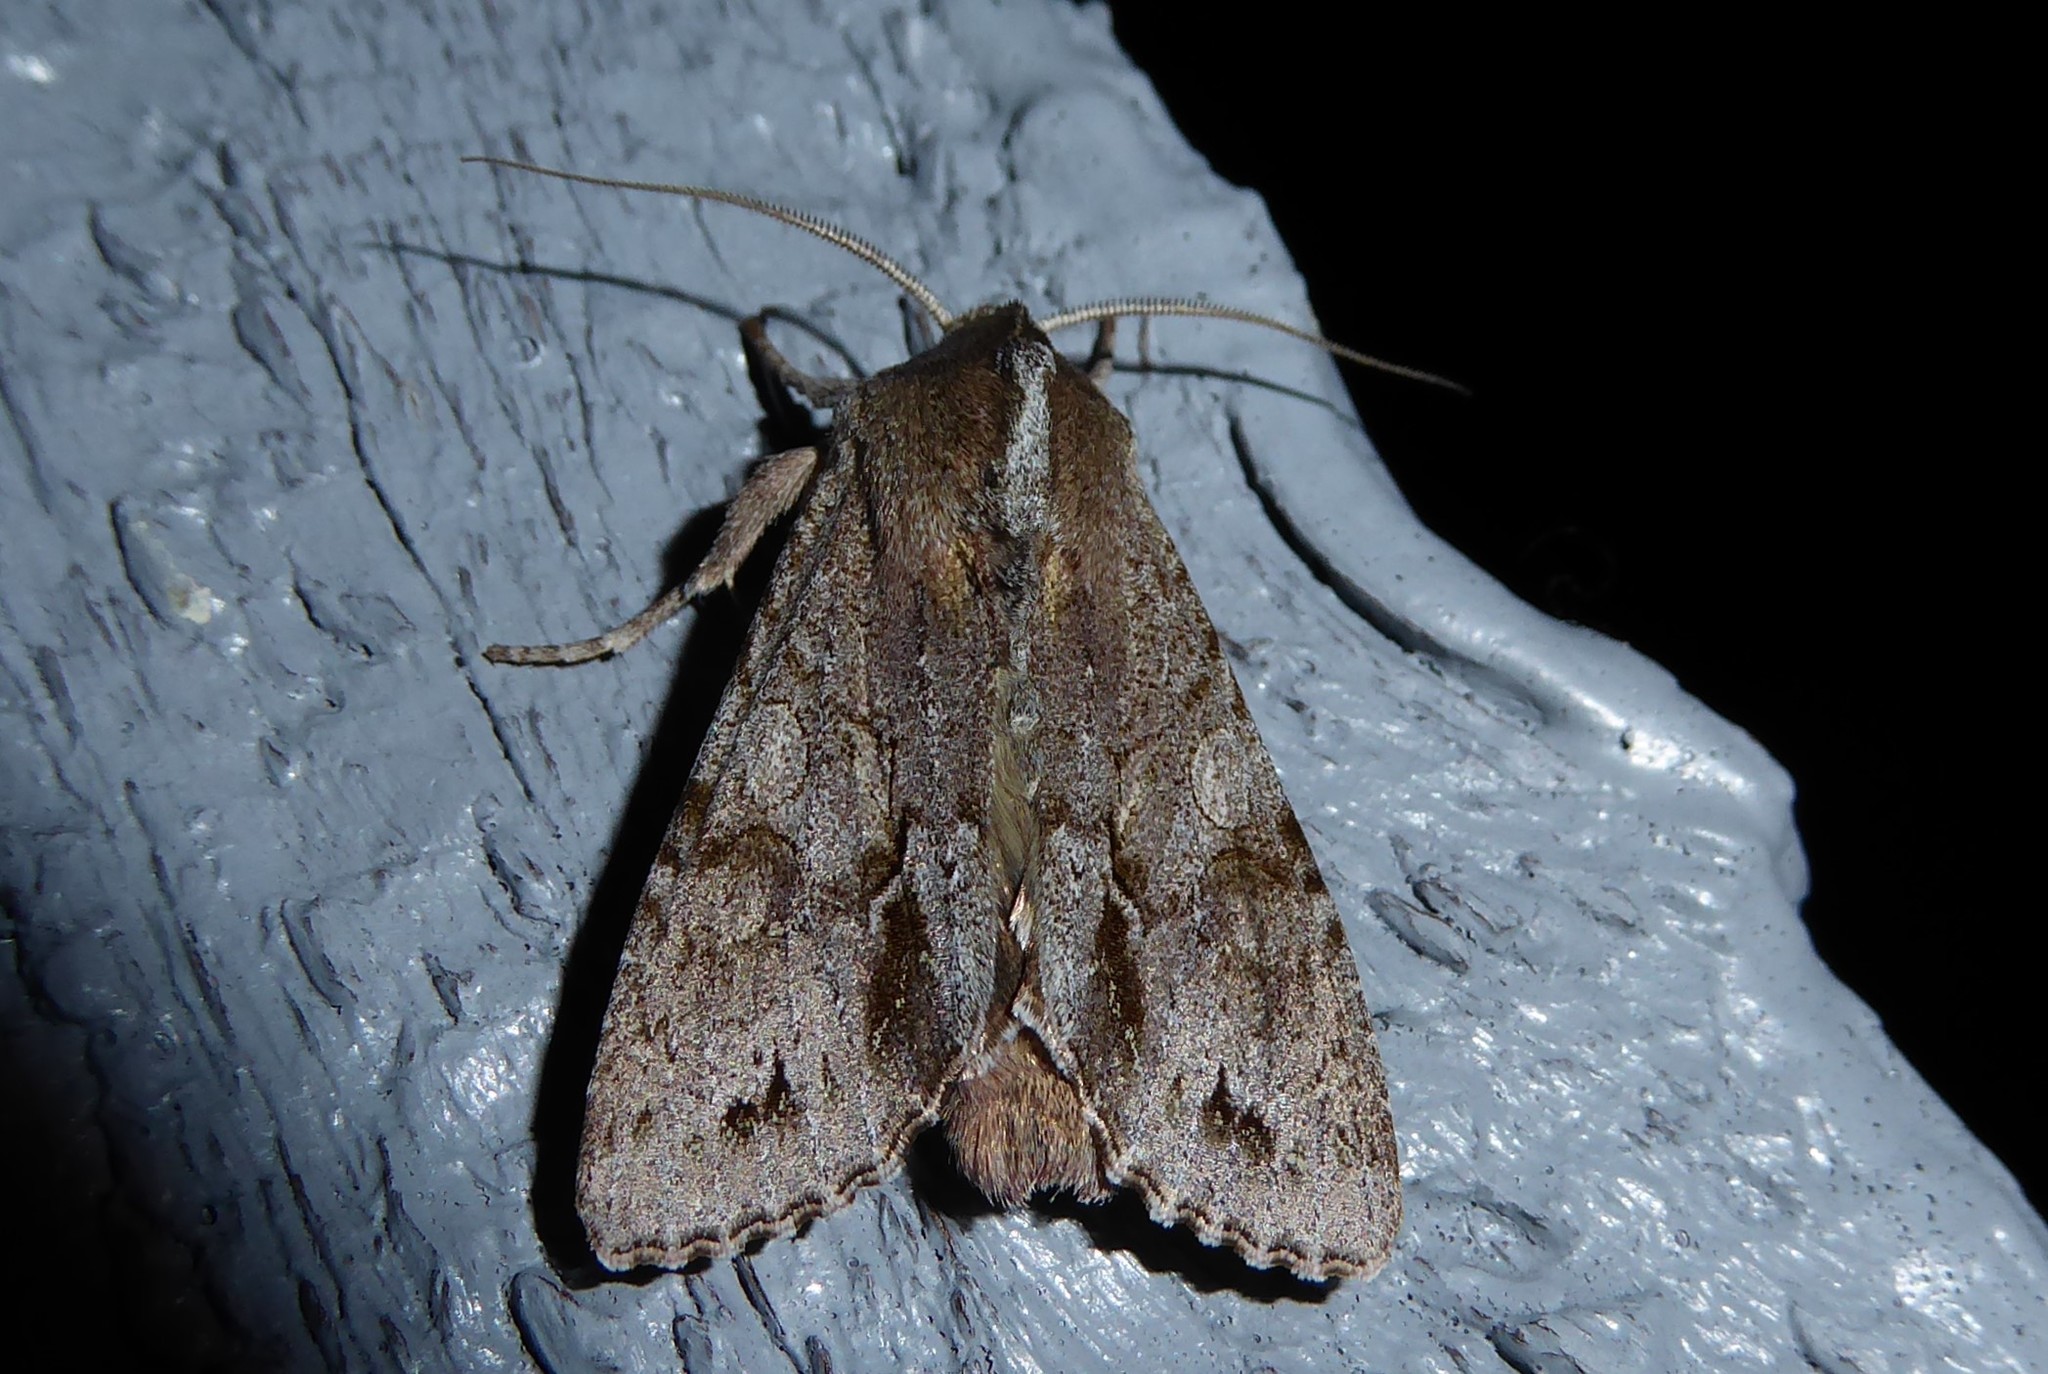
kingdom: Animalia
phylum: Arthropoda
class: Insecta
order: Lepidoptera
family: Noctuidae
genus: Ichneutica
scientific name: Ichneutica
